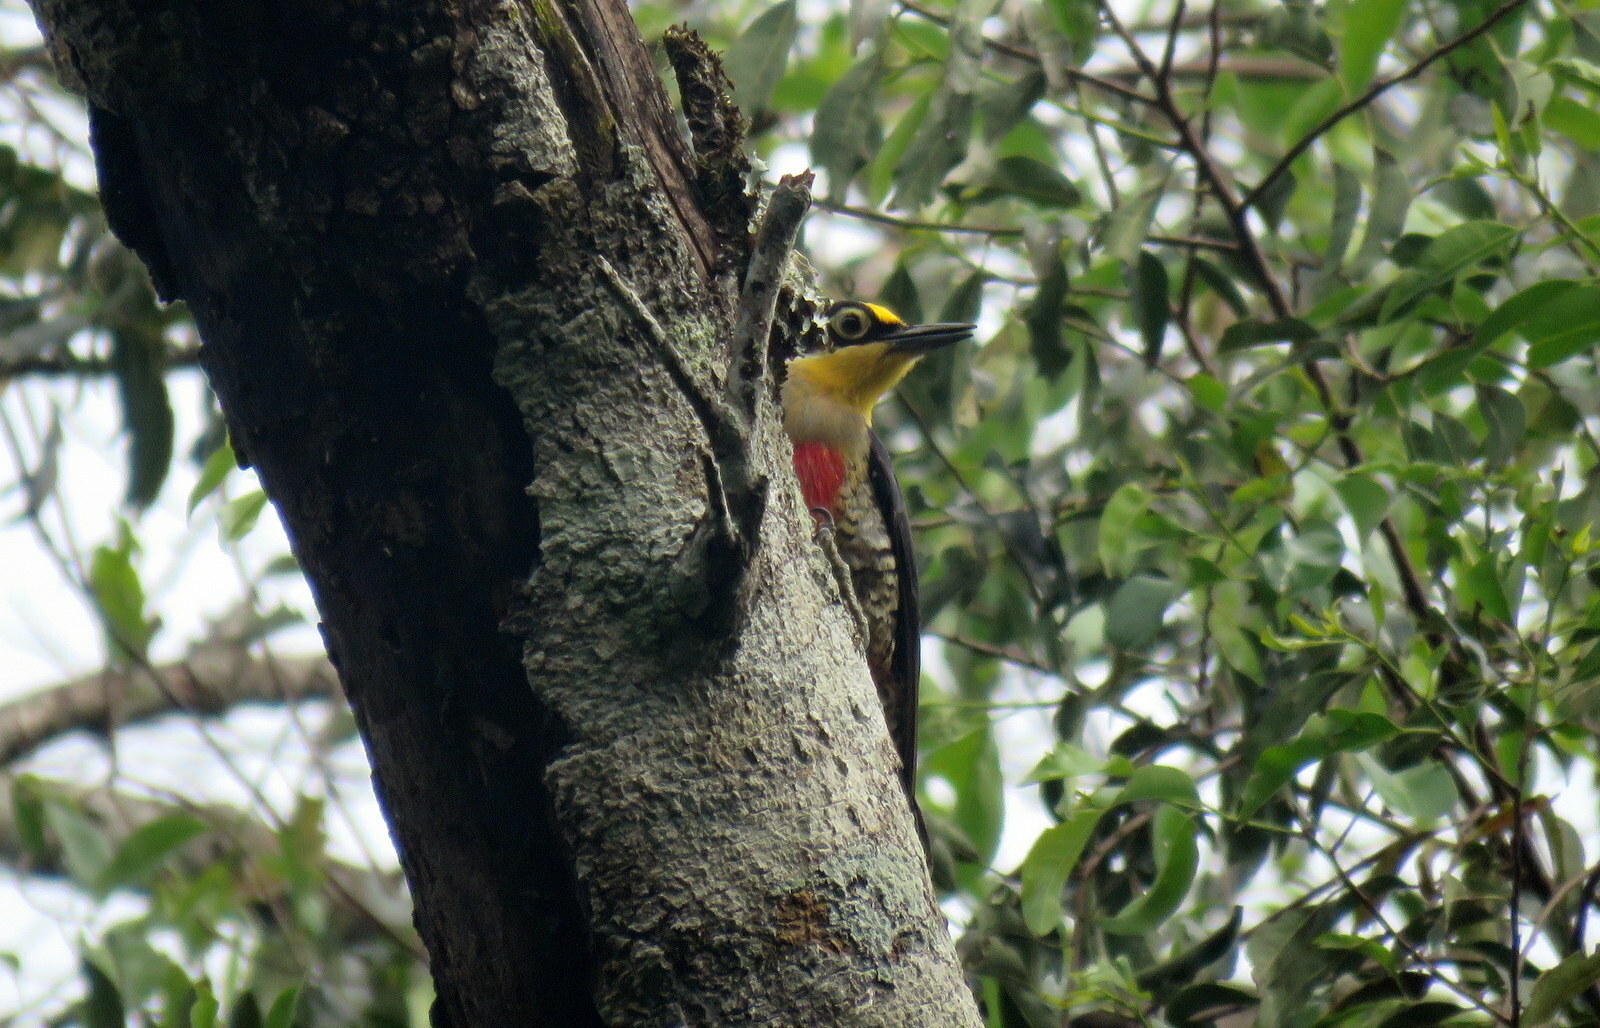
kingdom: Animalia
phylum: Chordata
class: Aves
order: Piciformes
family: Picidae
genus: Melanerpes
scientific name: Melanerpes flavifrons
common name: Yellow-fronted woodpecker
